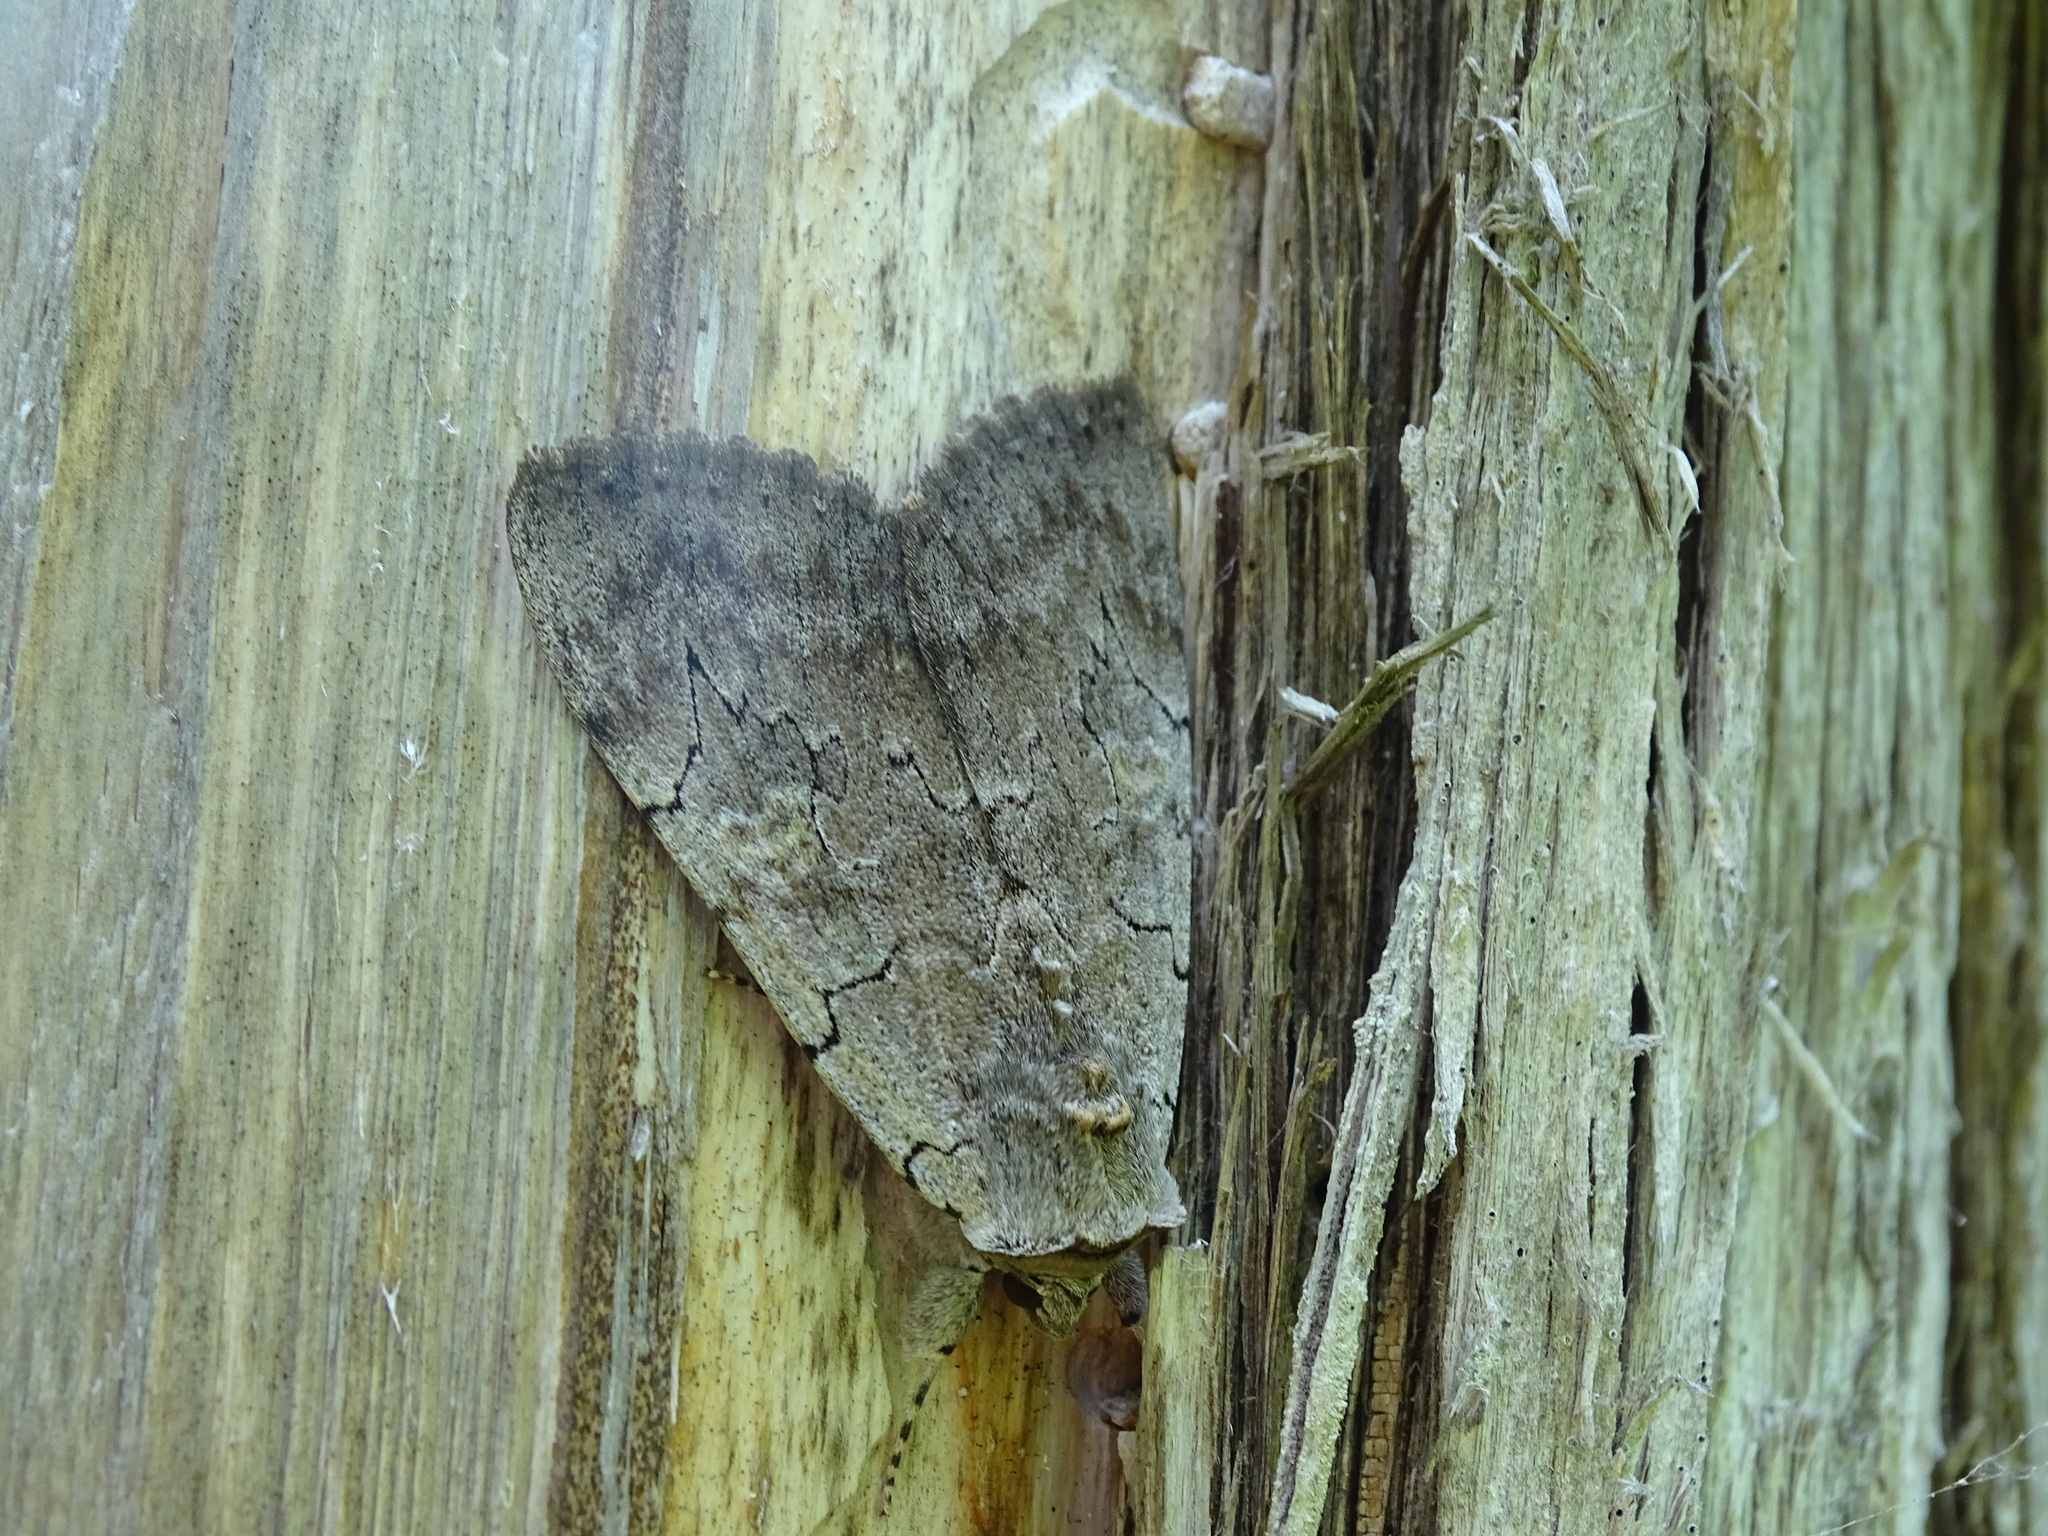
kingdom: Animalia
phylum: Arthropoda
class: Insecta
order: Lepidoptera
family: Erebidae
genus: Catocala
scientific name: Catocala concumbens
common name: Pink underwing
